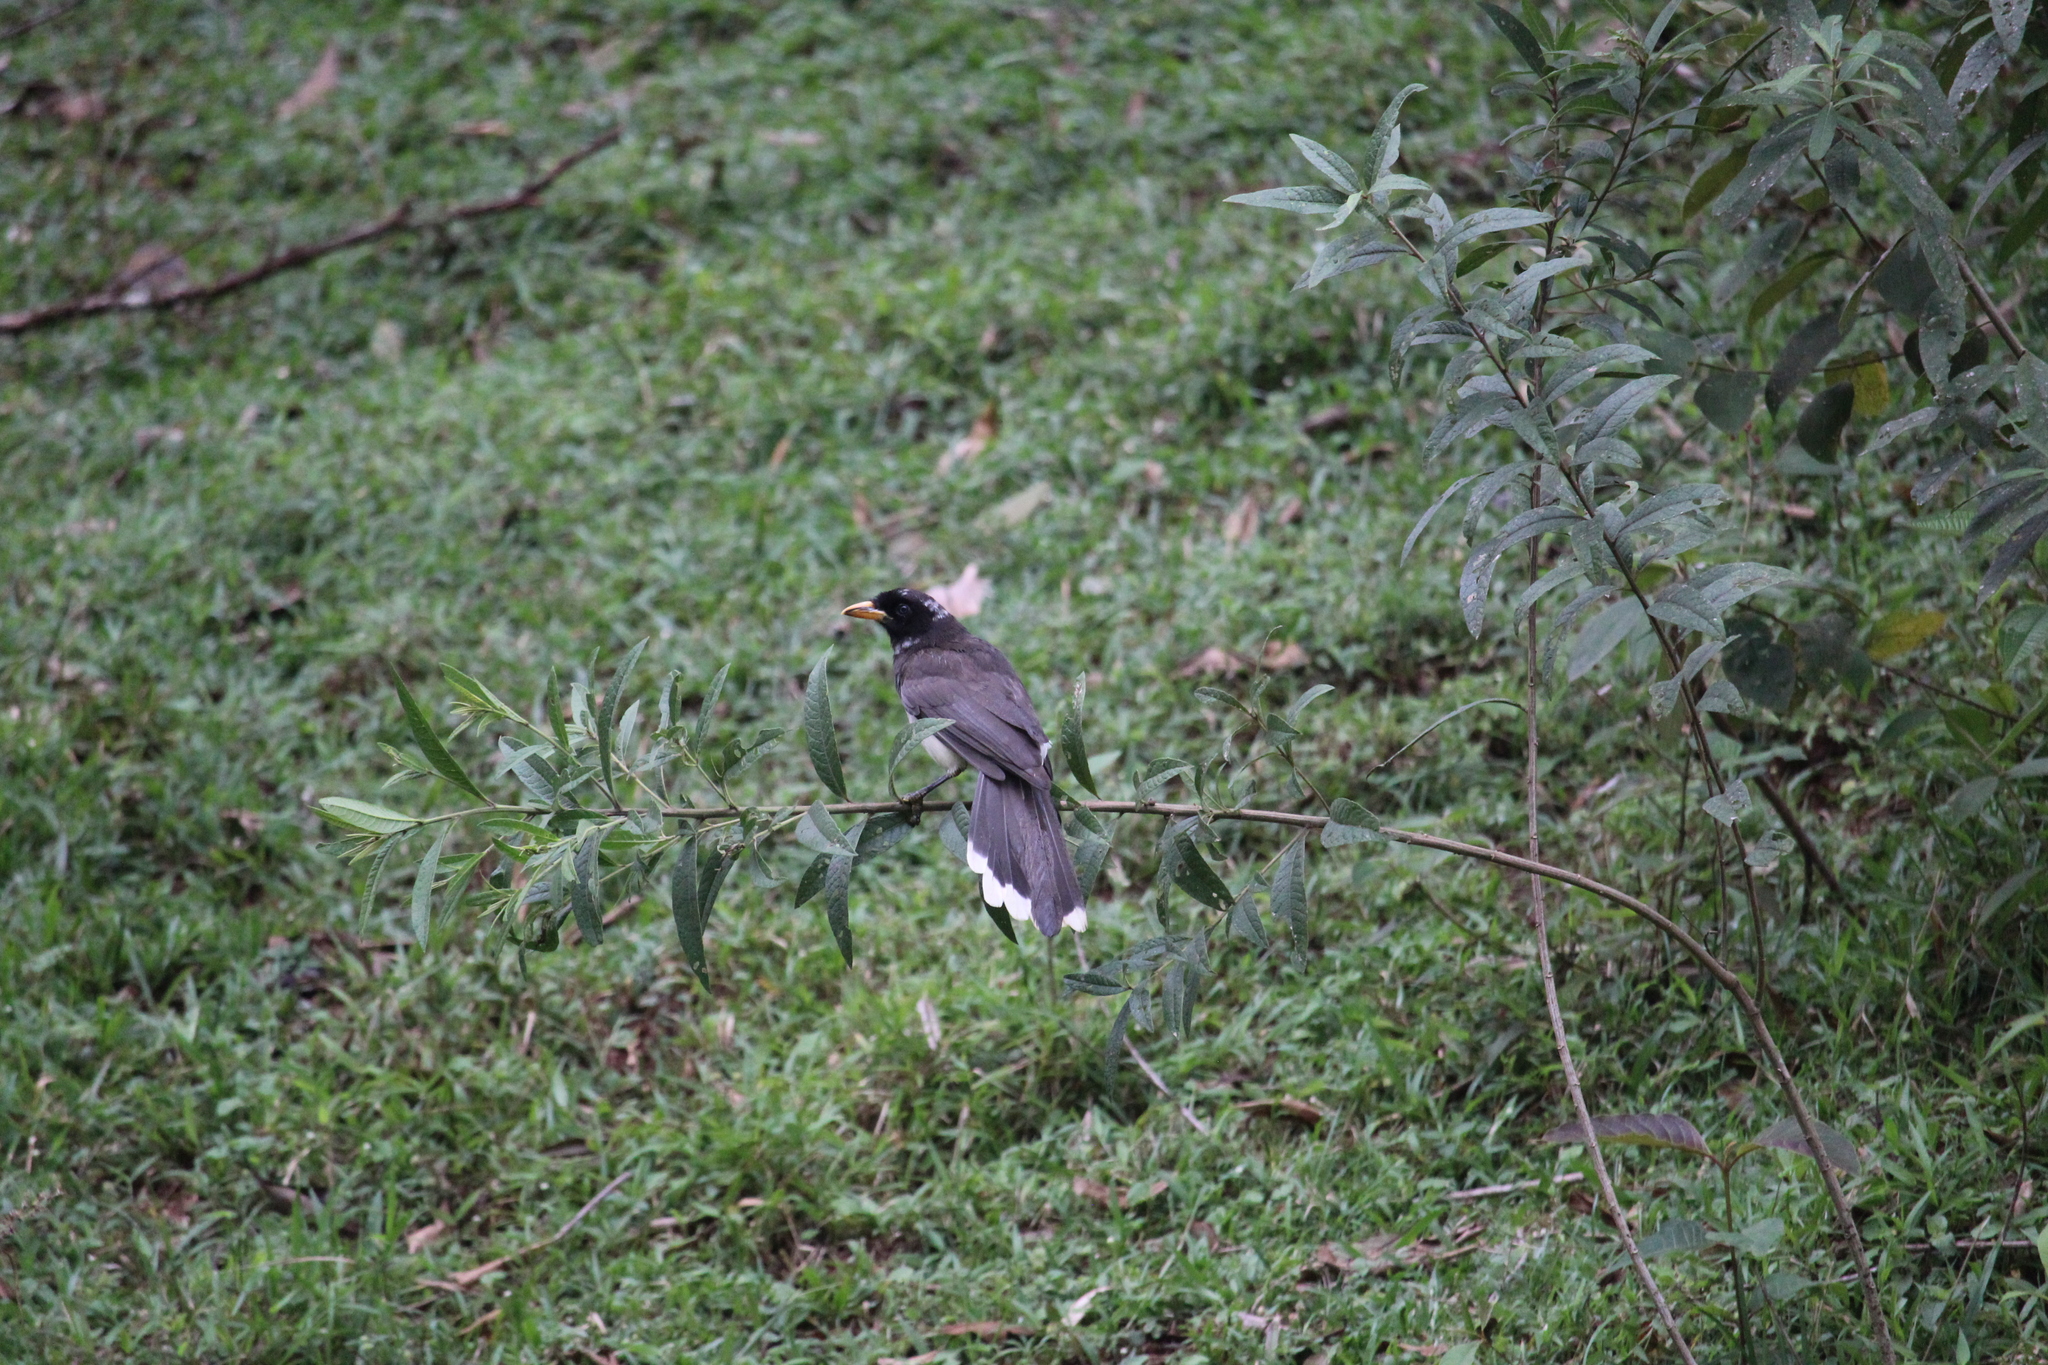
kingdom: Animalia
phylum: Chordata
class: Aves
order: Passeriformes
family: Corvidae
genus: Psilorhinus
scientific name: Psilorhinus morio
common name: Brown jay
